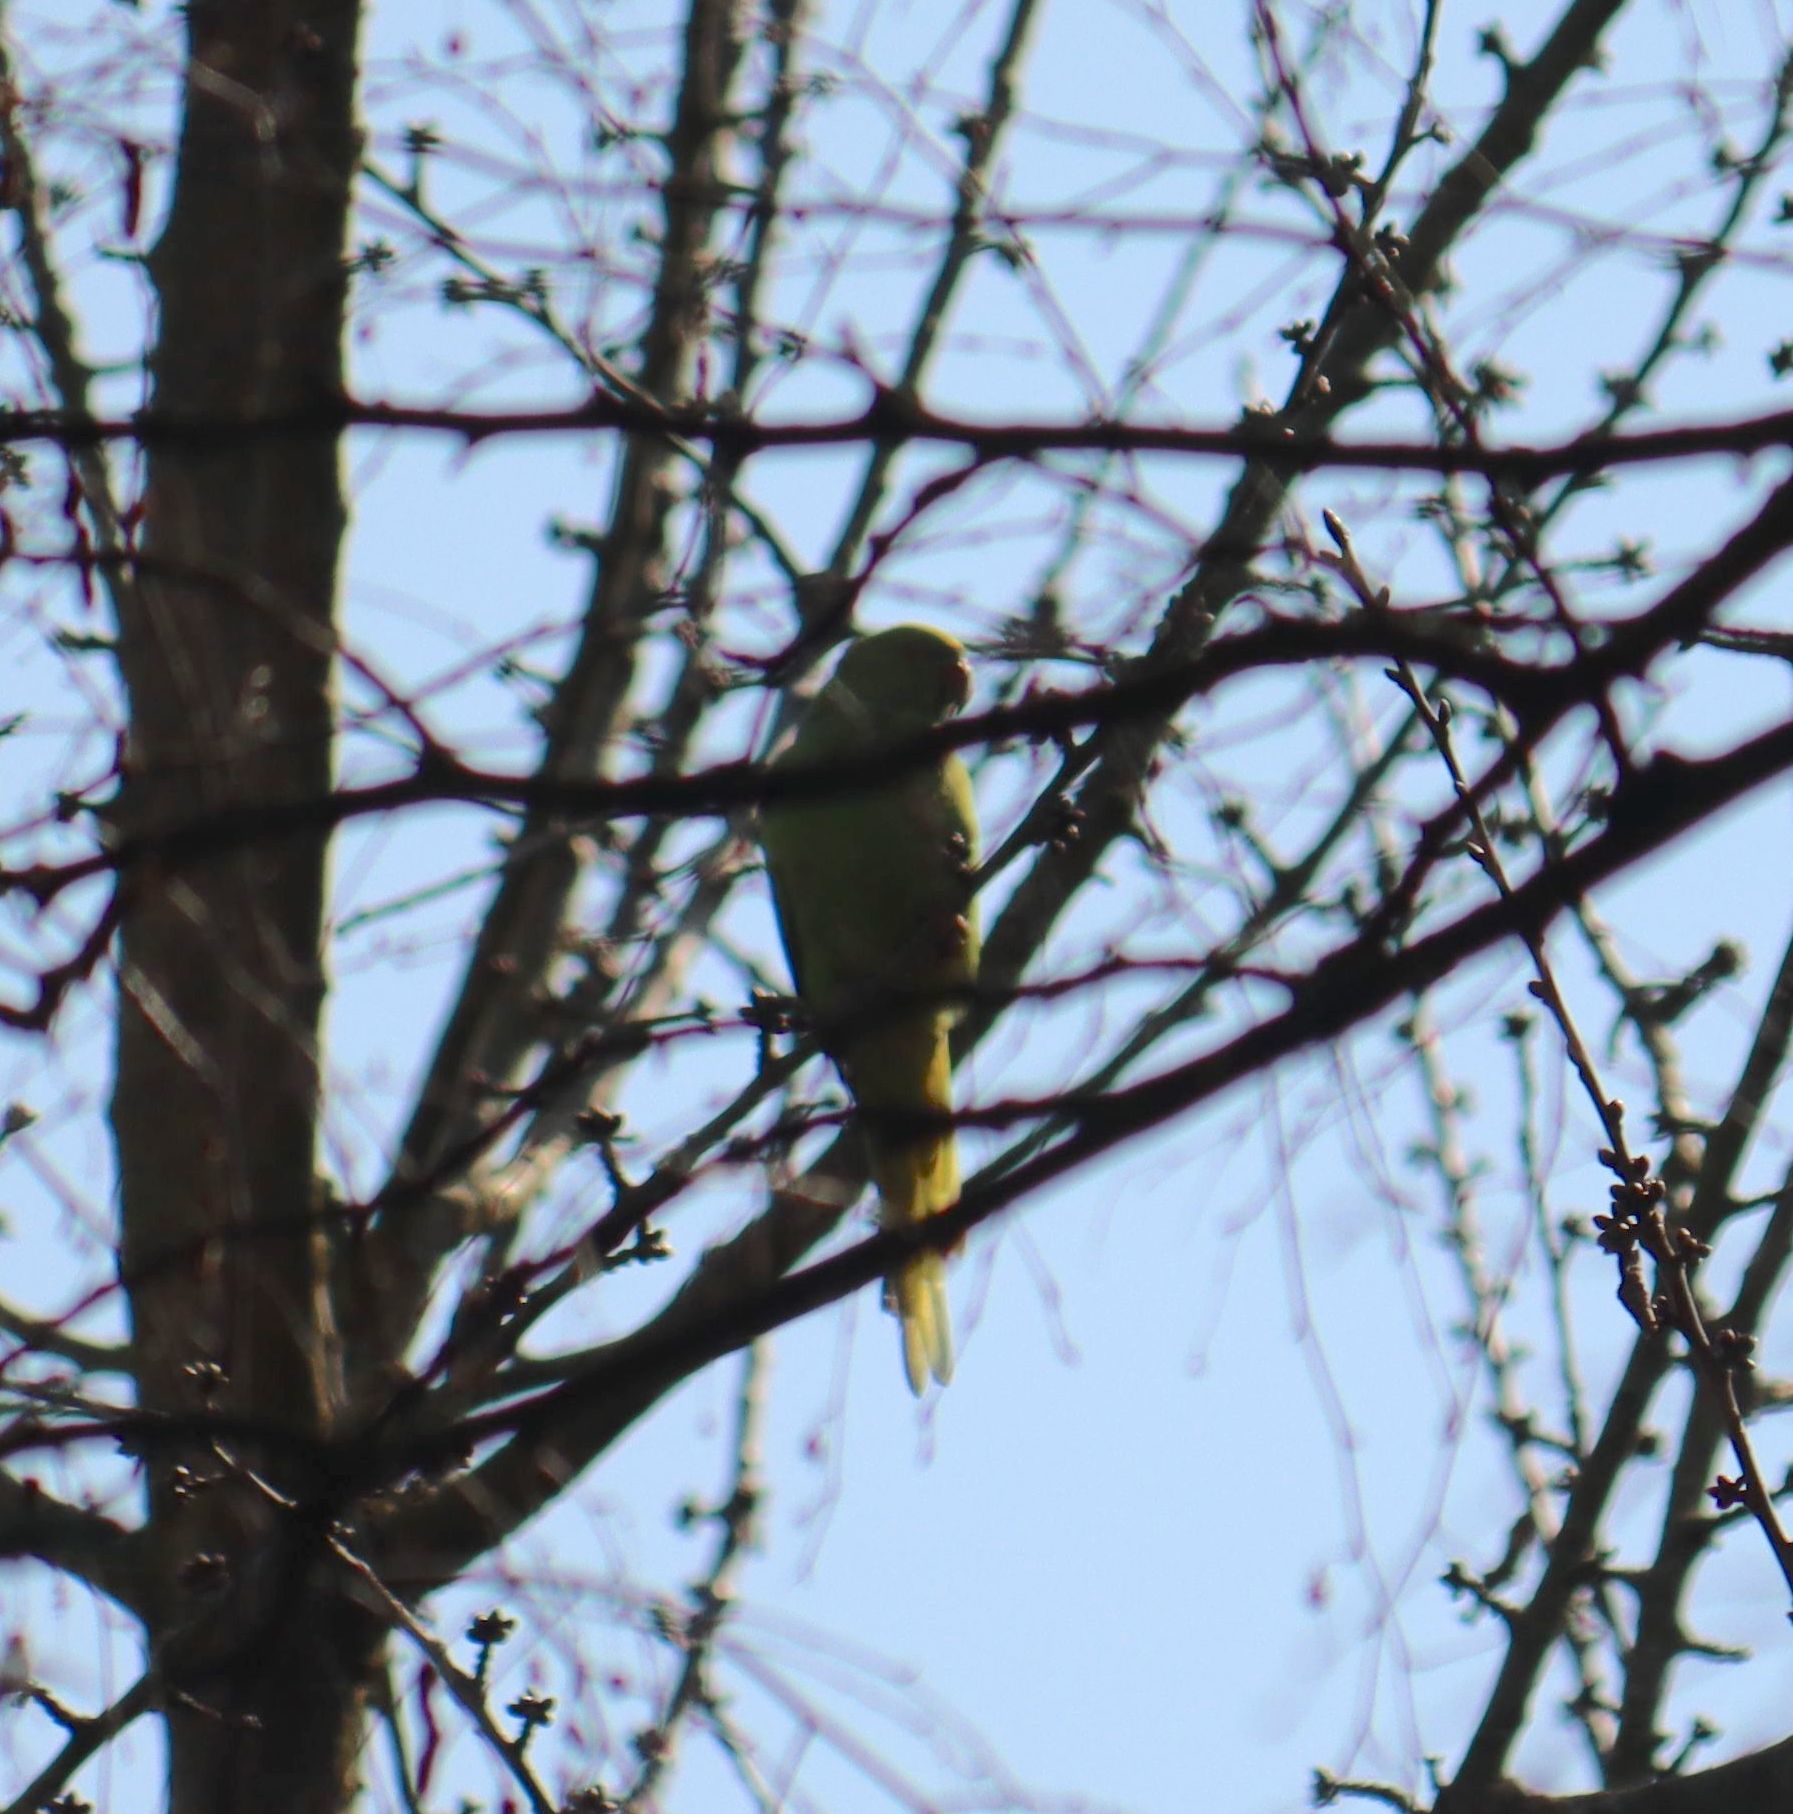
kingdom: Animalia
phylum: Chordata
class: Aves
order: Psittaciformes
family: Psittacidae
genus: Psittacula
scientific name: Psittacula krameri
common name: Rose-ringed parakeet
